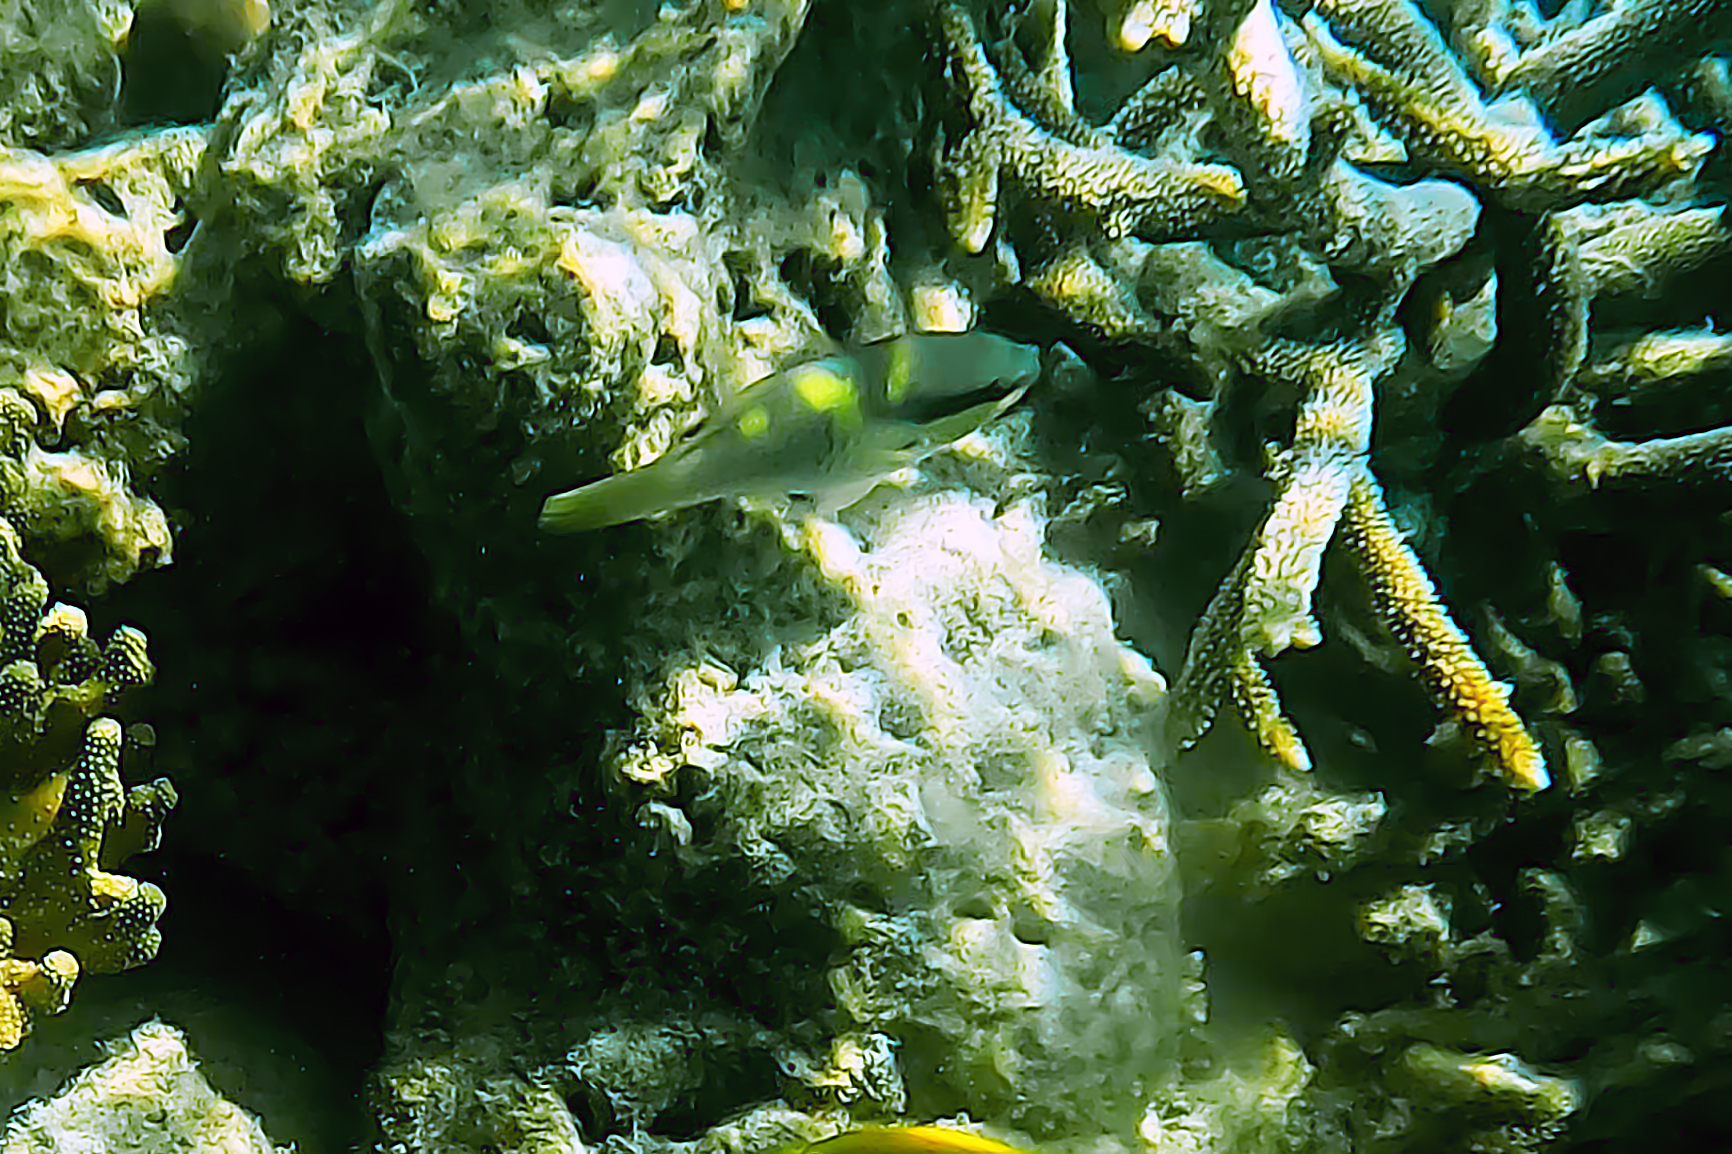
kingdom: Animalia
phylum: Chordata
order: Perciformes
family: Scaridae
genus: Scarus
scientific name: Scarus oviceps
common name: Blue parrotfish
